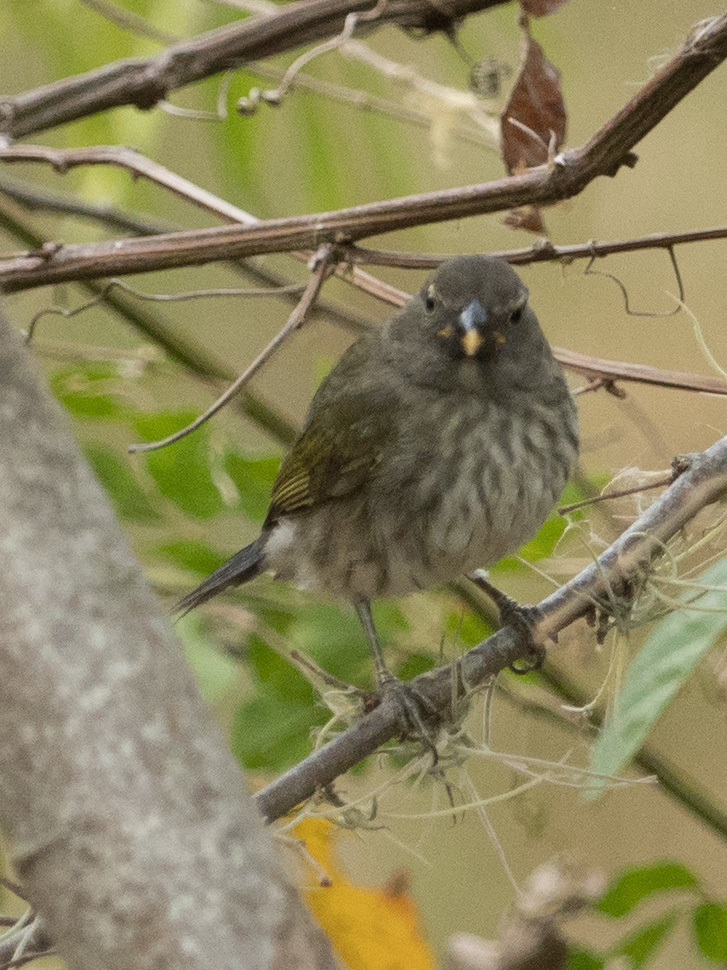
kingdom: Animalia
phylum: Chordata
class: Aves
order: Passeriformes
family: Thraupidae
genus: Saltator
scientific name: Saltator striatipectus
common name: Streaked saltator
